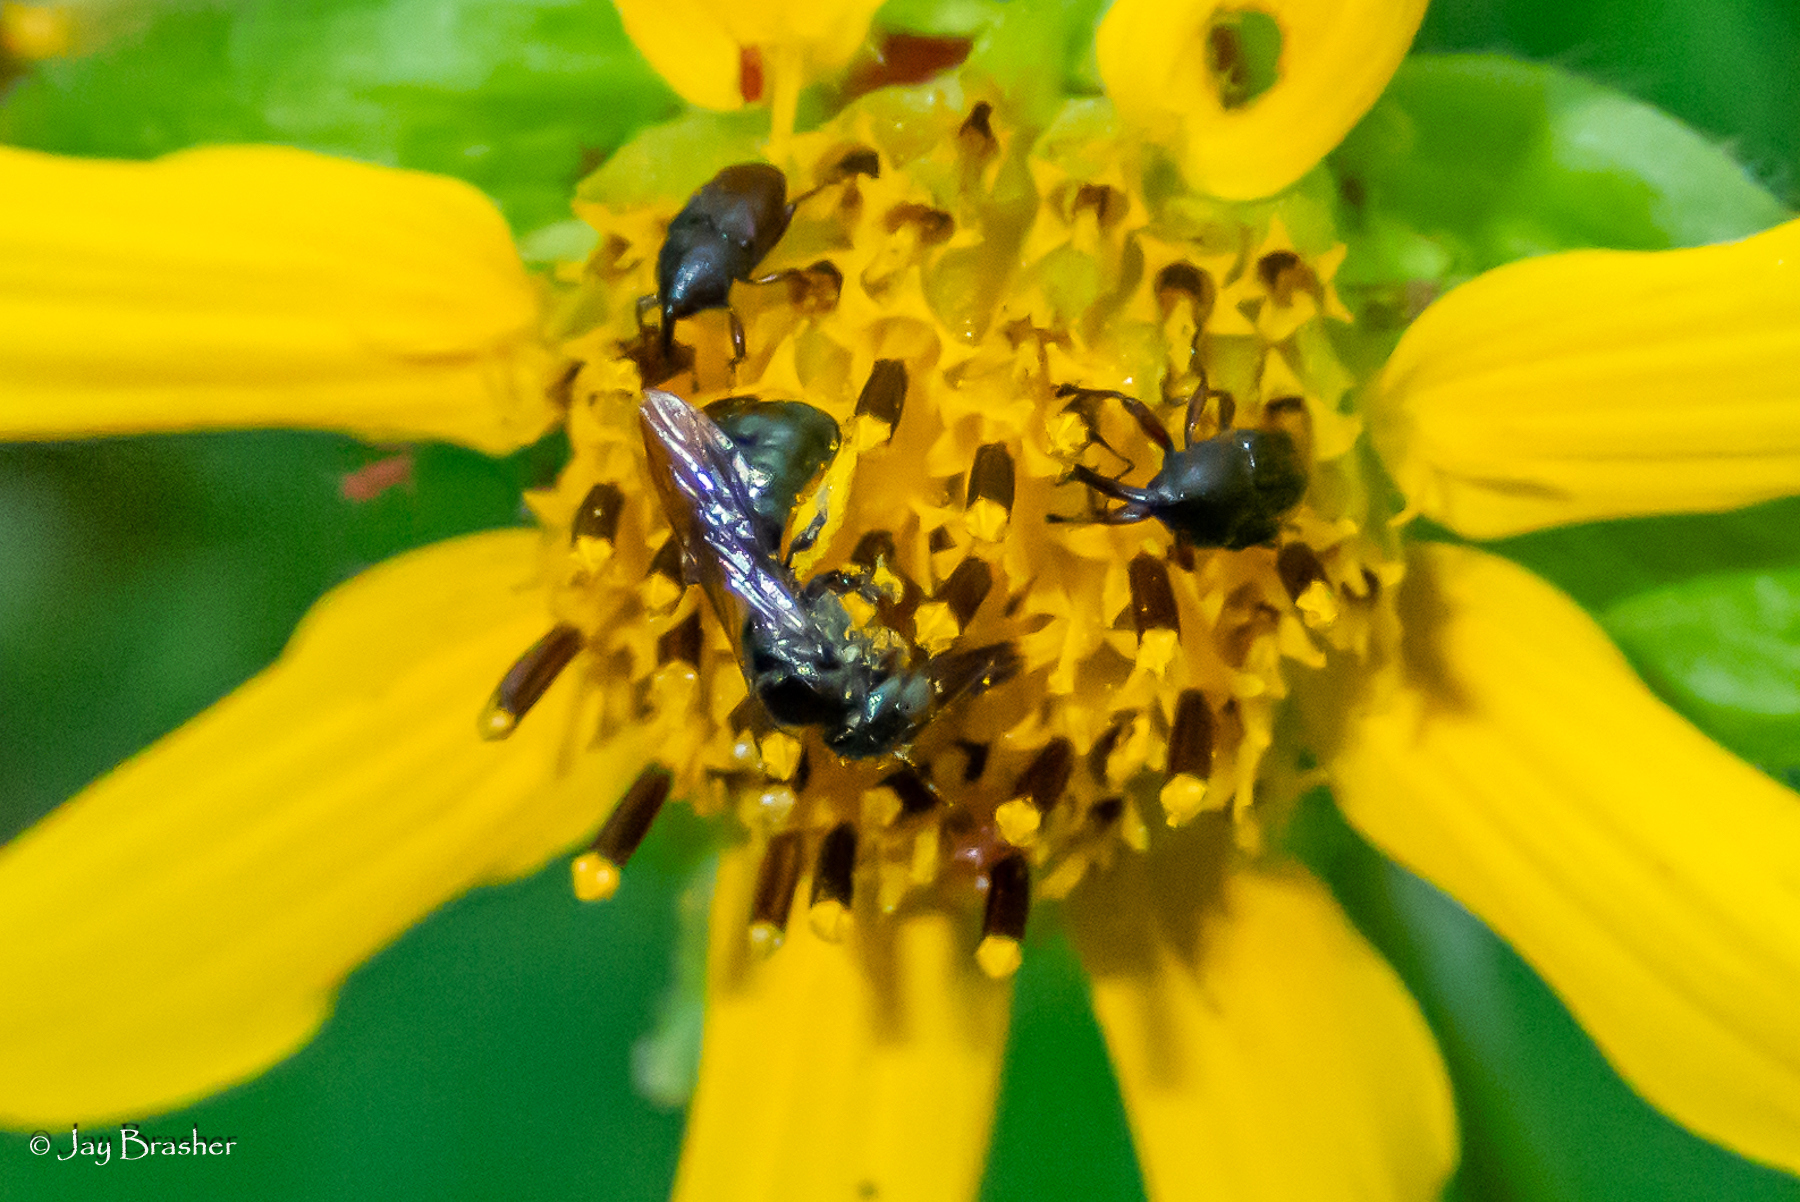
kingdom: Animalia
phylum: Arthropoda
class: Insecta
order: Hymenoptera
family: Apidae
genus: Zadontomerus
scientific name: Zadontomerus
